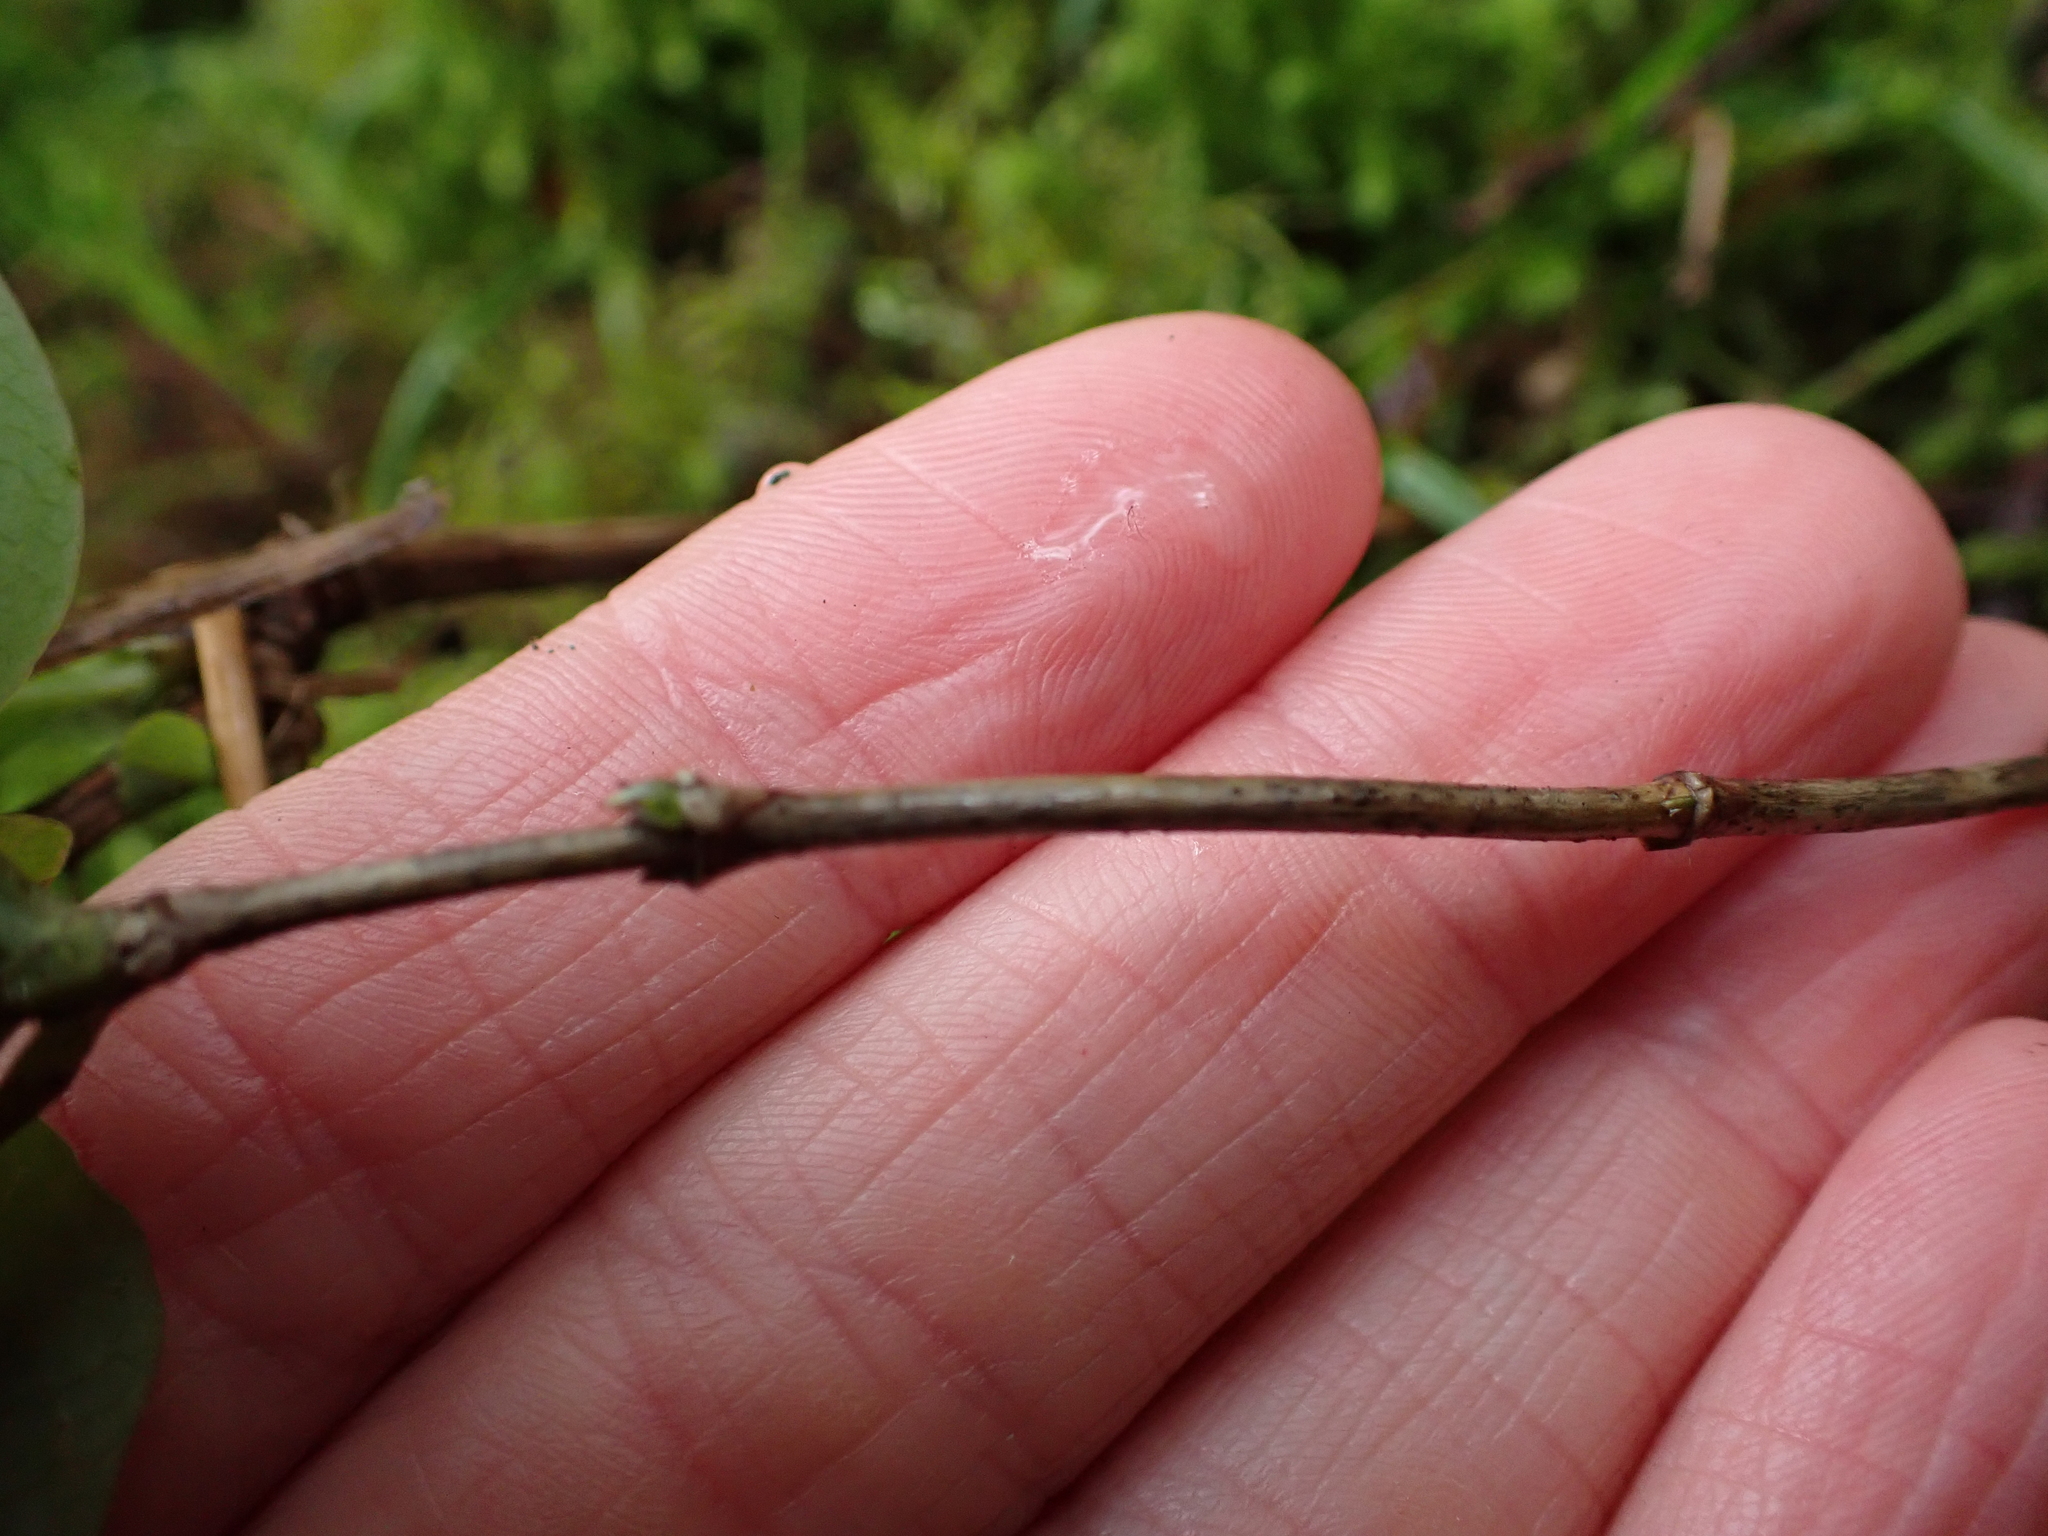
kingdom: Plantae
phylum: Tracheophyta
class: Magnoliopsida
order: Dipsacales
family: Caprifoliaceae
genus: Lonicera
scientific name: Lonicera ciliosa
